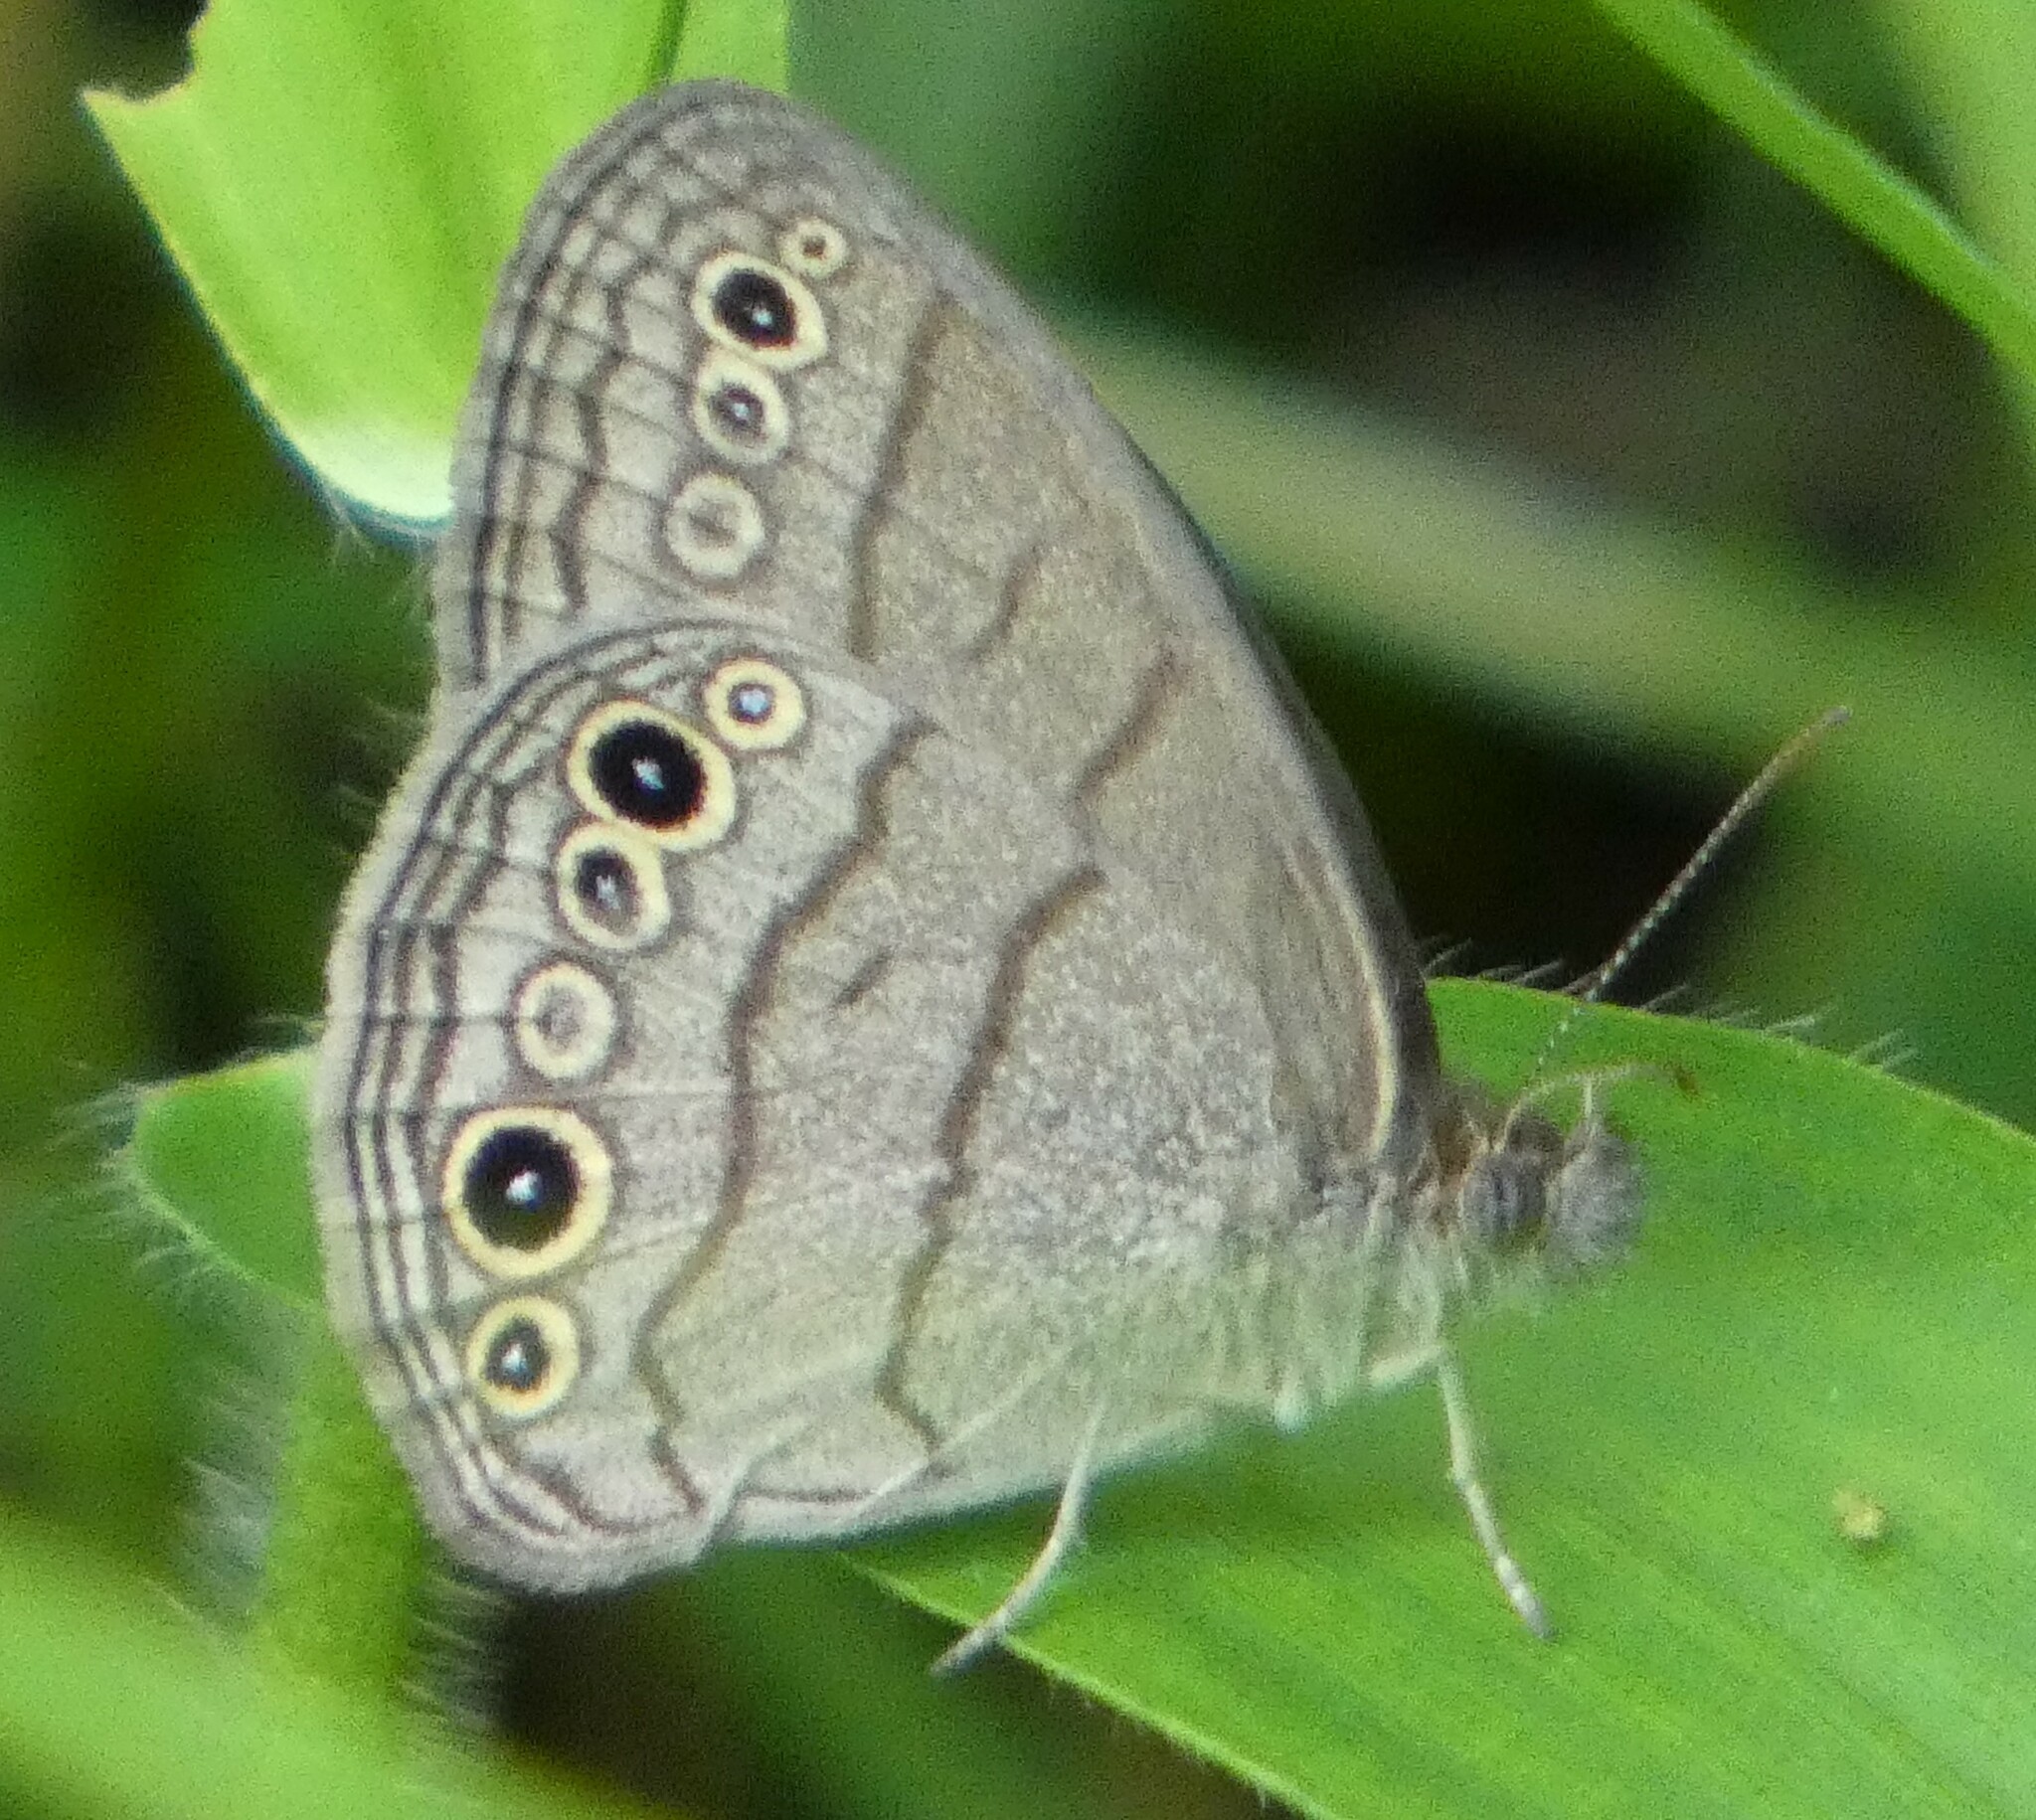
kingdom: Animalia
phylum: Arthropoda
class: Insecta
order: Lepidoptera
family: Nymphalidae
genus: Hermeuptychia
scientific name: Hermeuptychia hermes
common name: Hermes satyr
